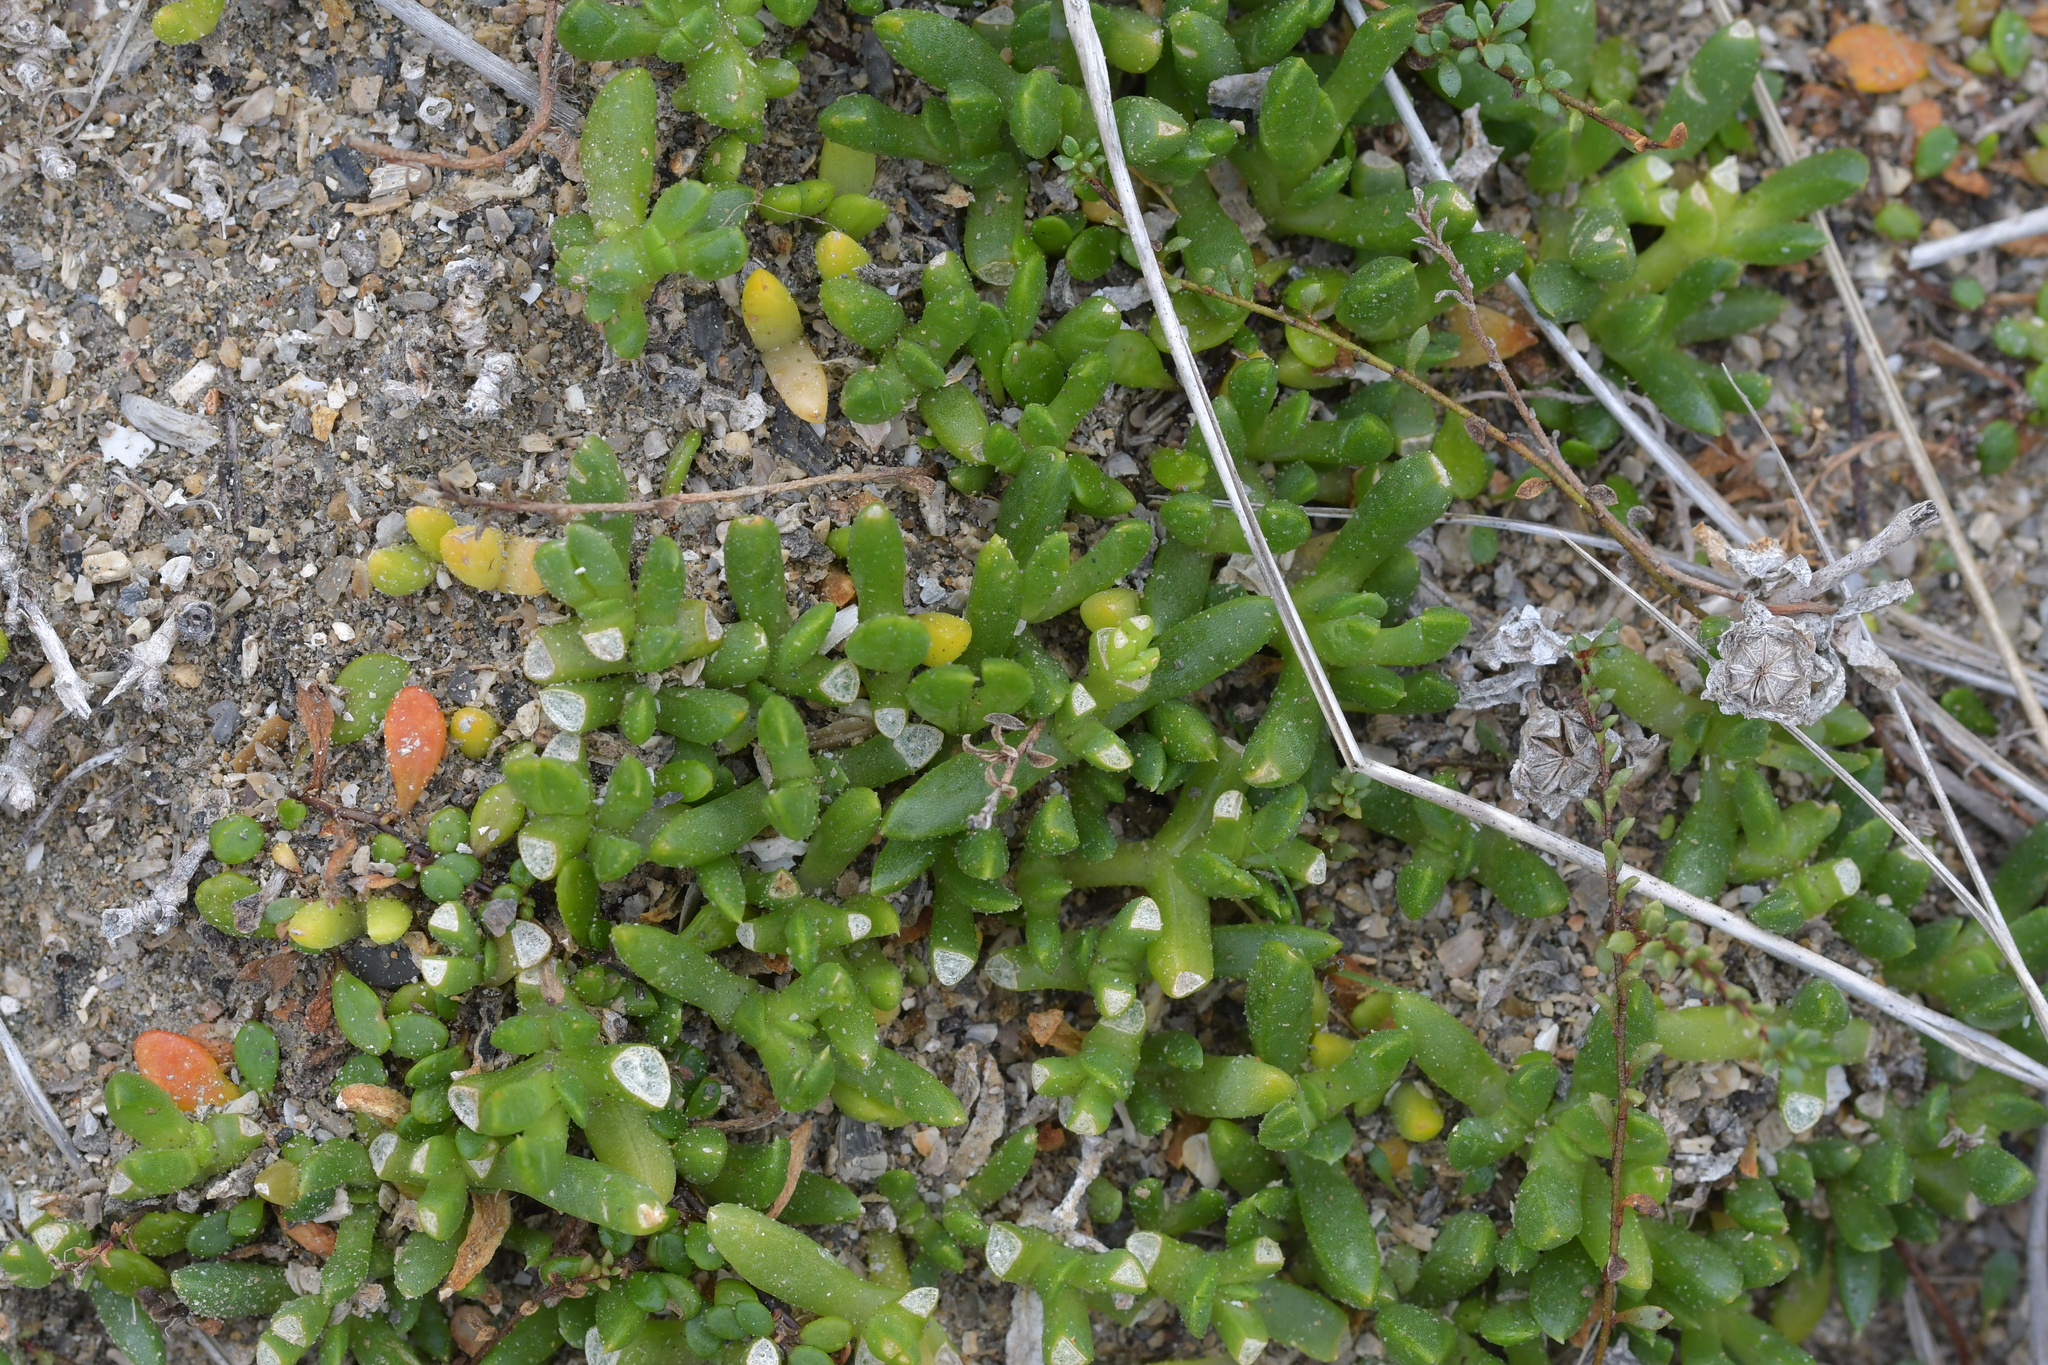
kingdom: Plantae
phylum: Tracheophyta
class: Magnoliopsida
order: Caryophyllales
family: Aizoaceae
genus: Disphyma
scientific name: Disphyma australe
